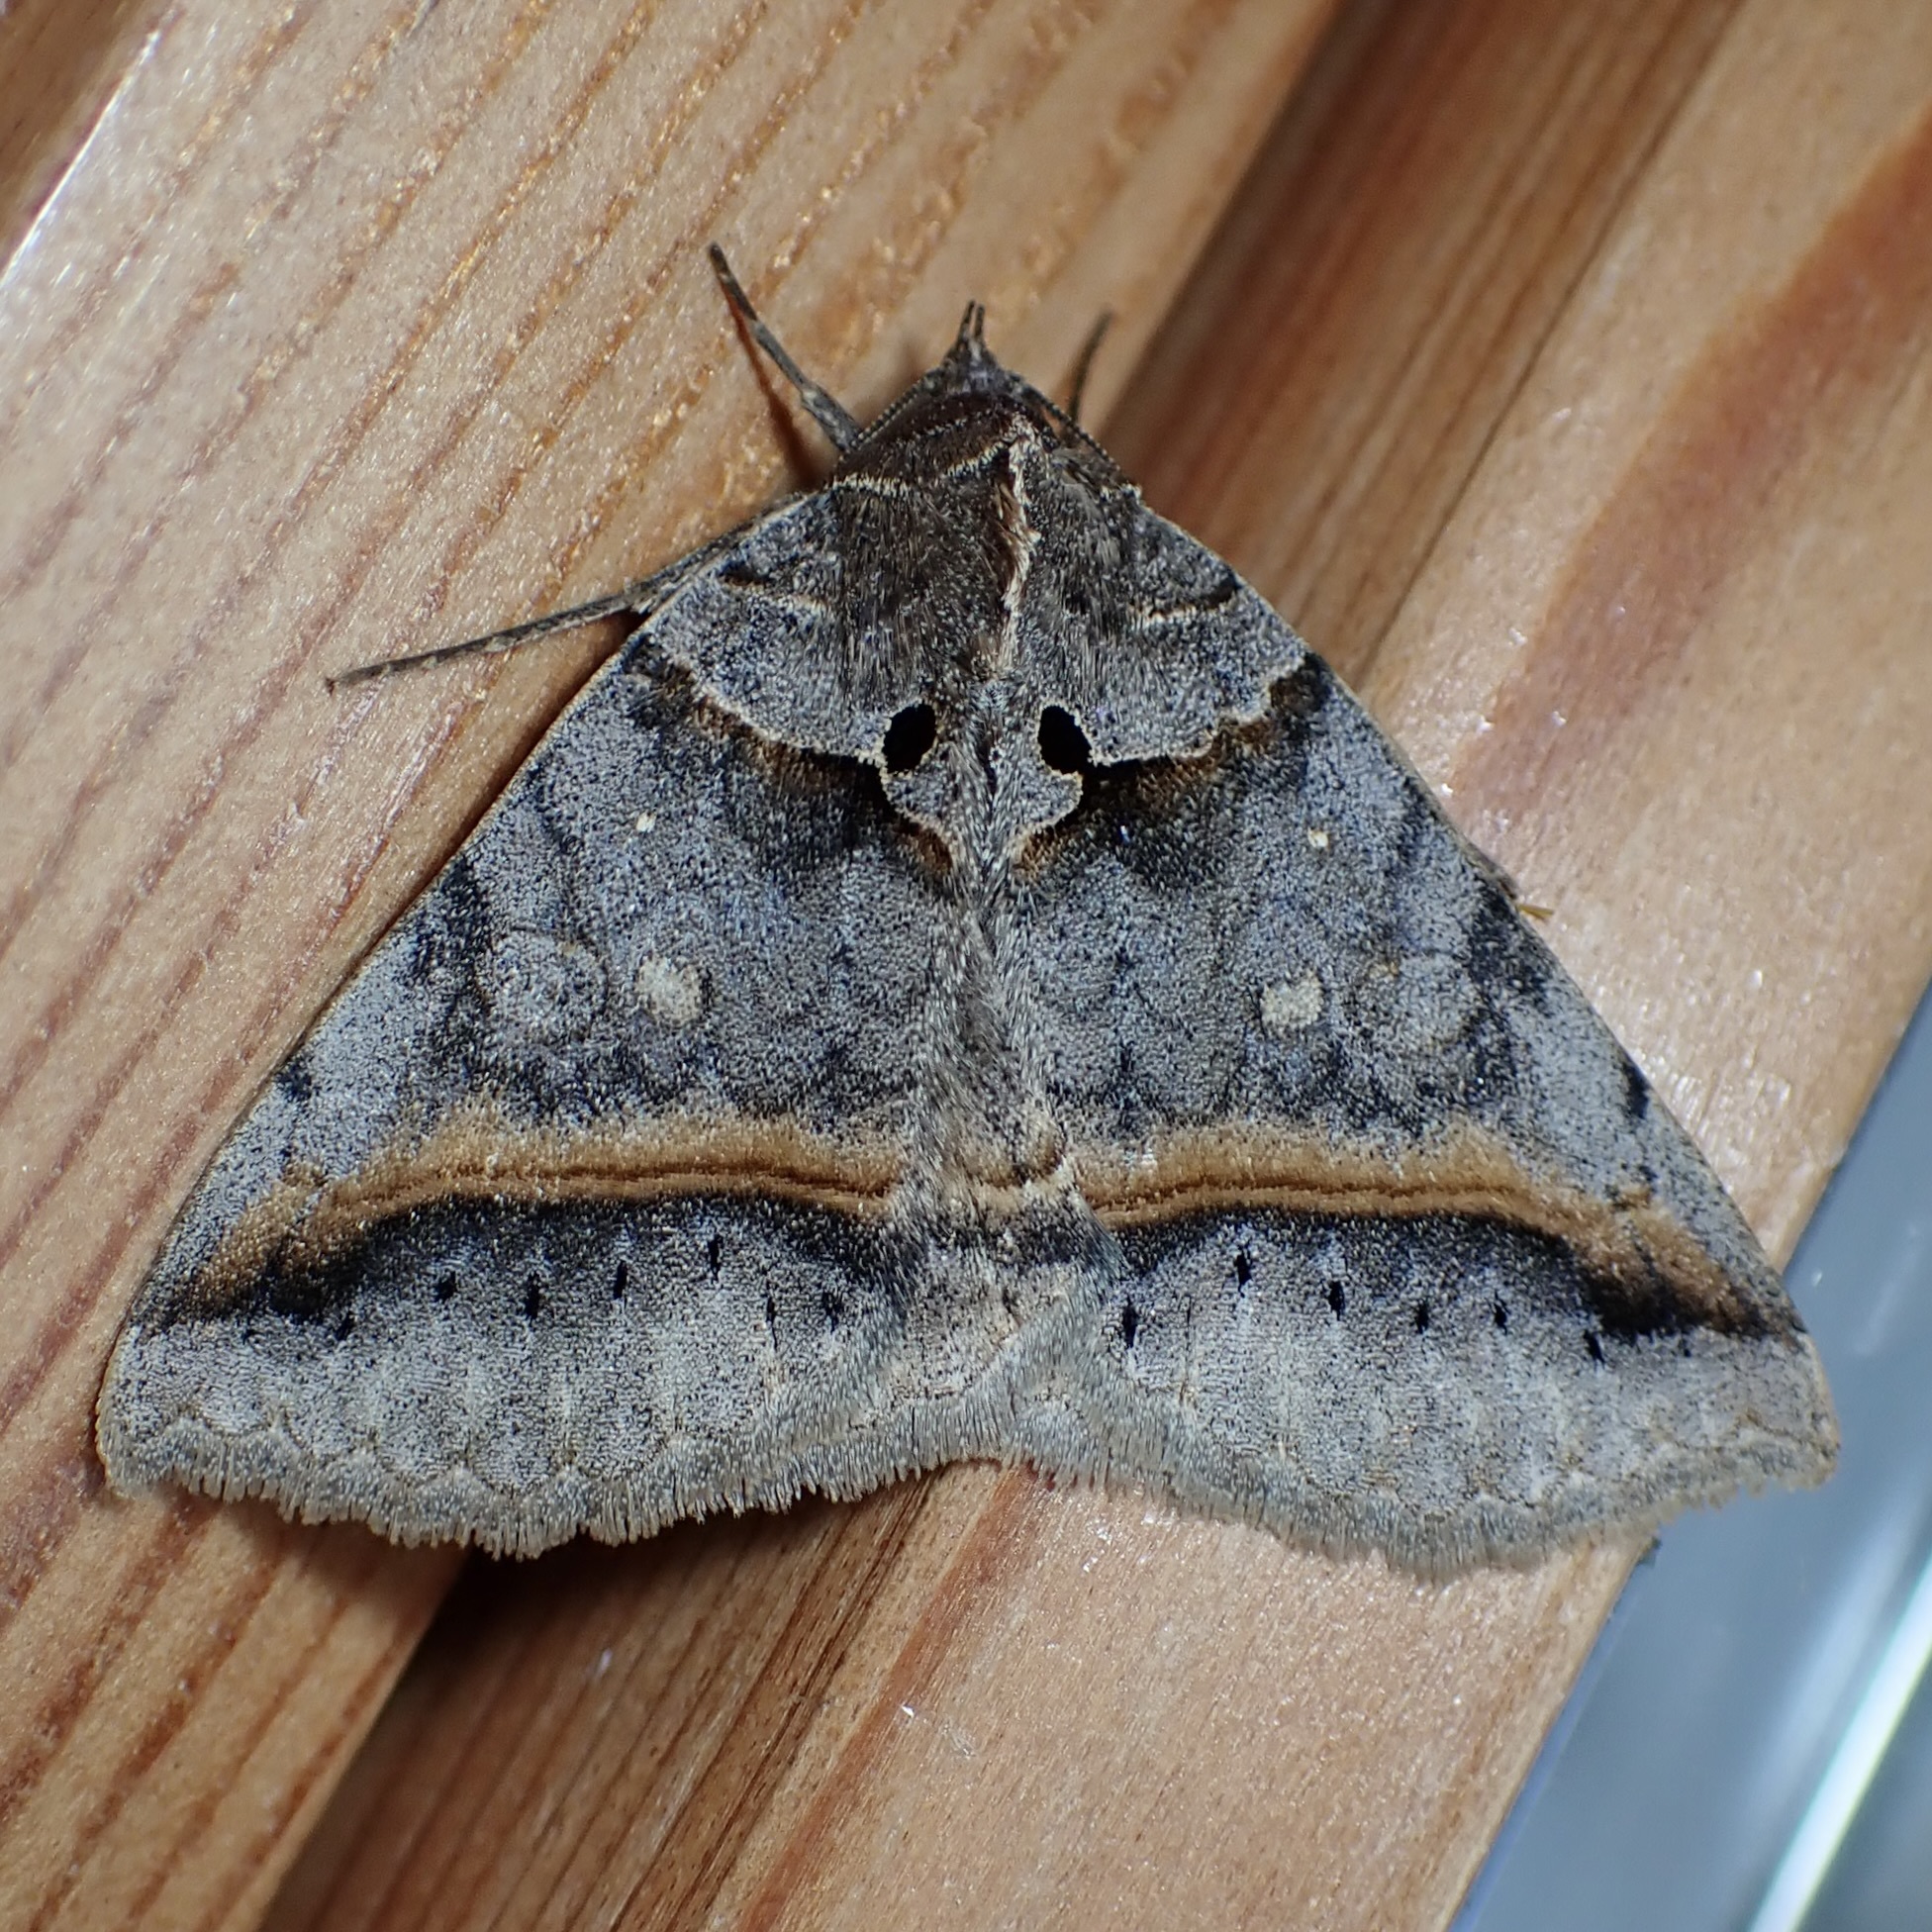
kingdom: Animalia
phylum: Arthropoda
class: Insecta
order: Lepidoptera
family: Erebidae
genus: Celiptera
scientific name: Celiptera valina
